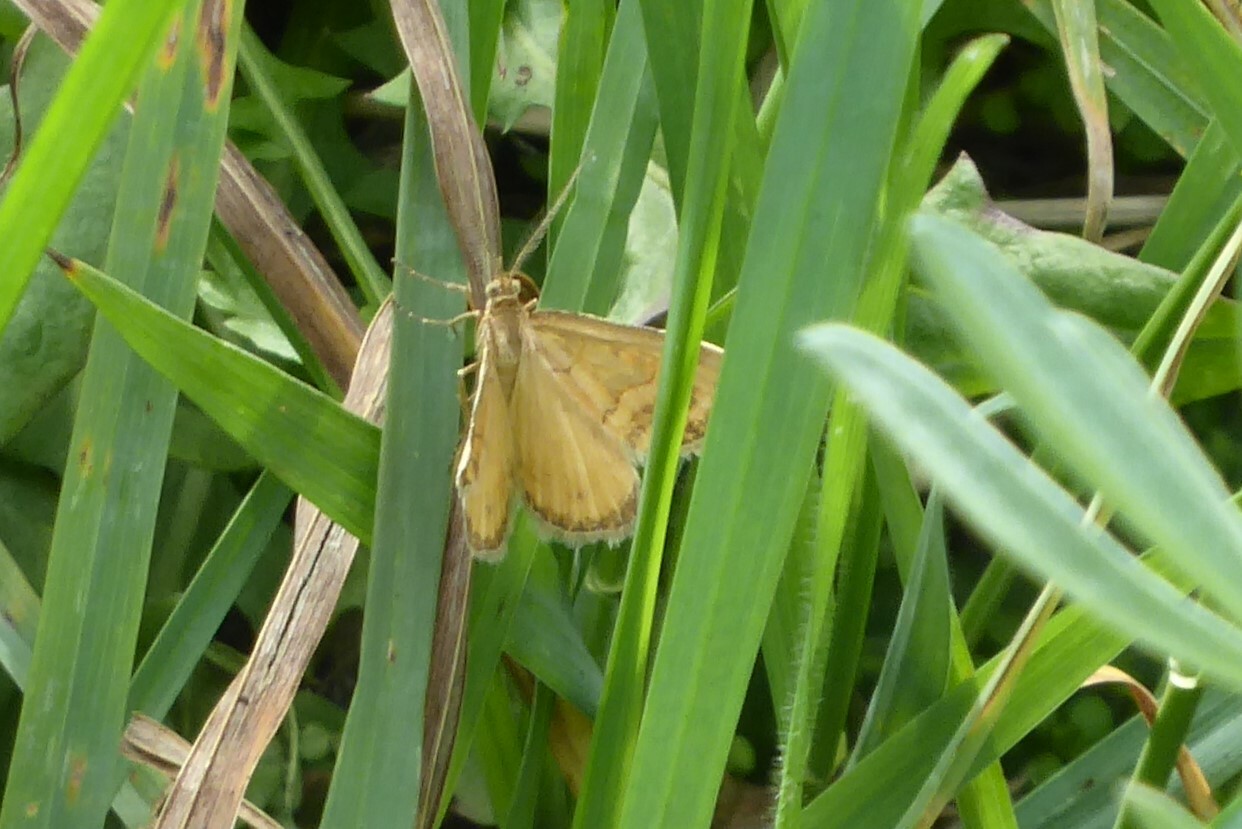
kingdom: Animalia
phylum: Arthropoda
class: Insecta
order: Lepidoptera
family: Geometridae
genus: Asaphodes
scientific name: Asaphodes abrogata
